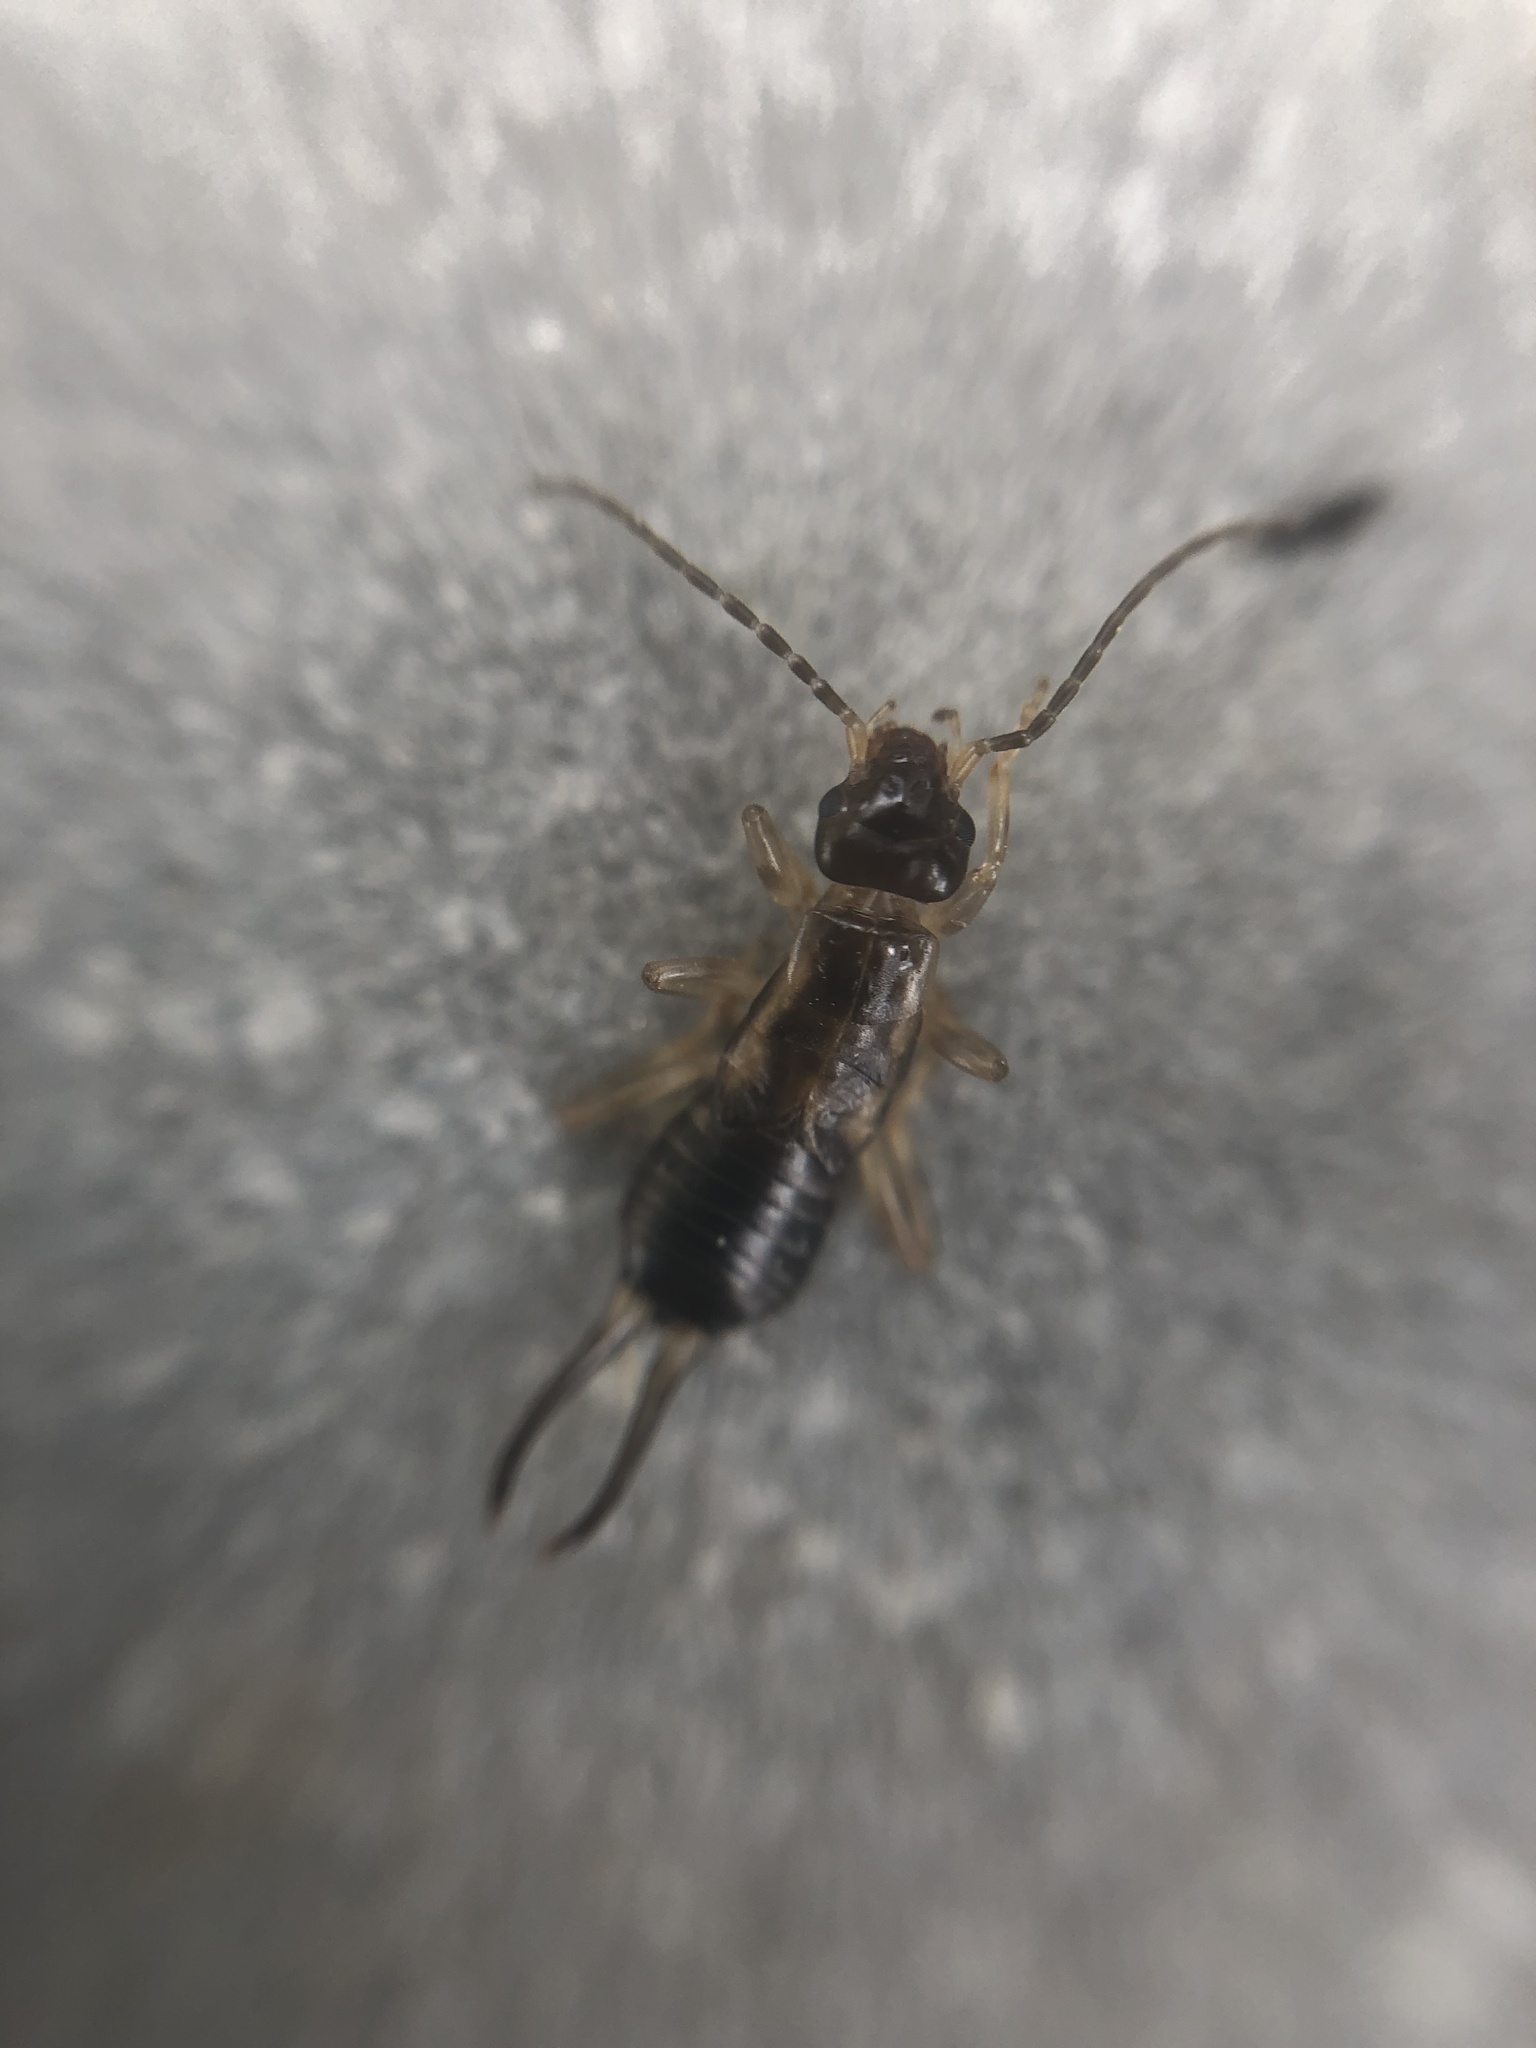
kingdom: Animalia
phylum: Arthropoda
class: Insecta
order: Dermaptera
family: Forficulidae
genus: Forficula
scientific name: Forficula
